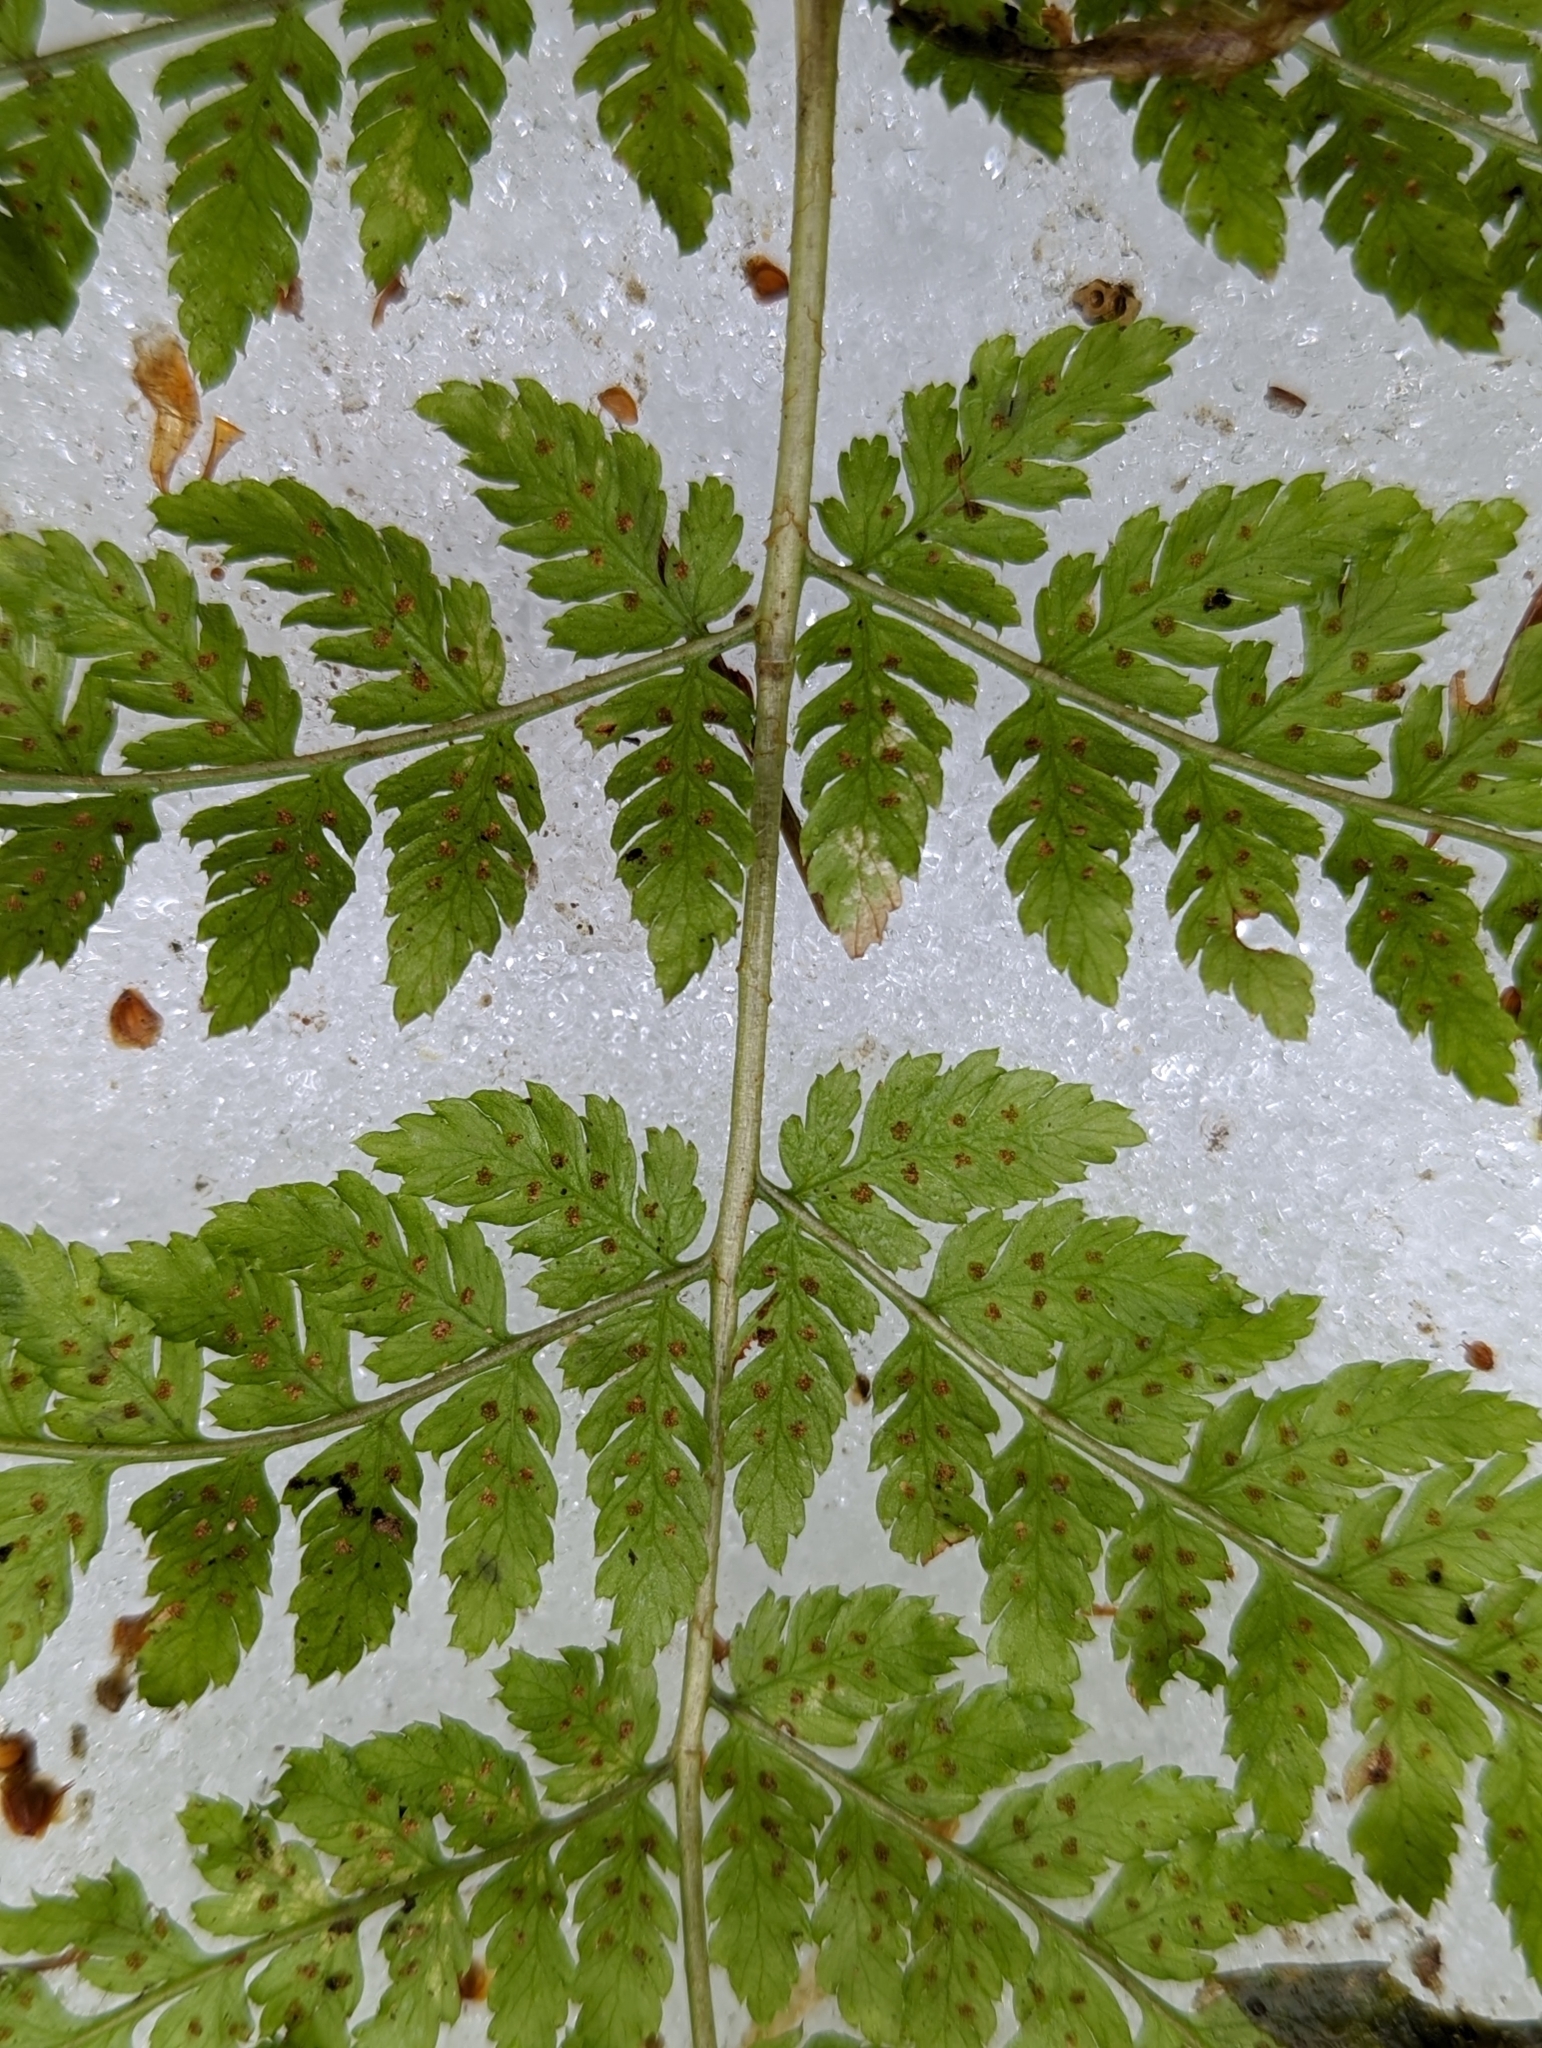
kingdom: Plantae
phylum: Tracheophyta
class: Polypodiopsida
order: Polypodiales
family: Dryopteridaceae
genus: Dryopteris
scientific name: Dryopteris expansa
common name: Northern buckler fern
